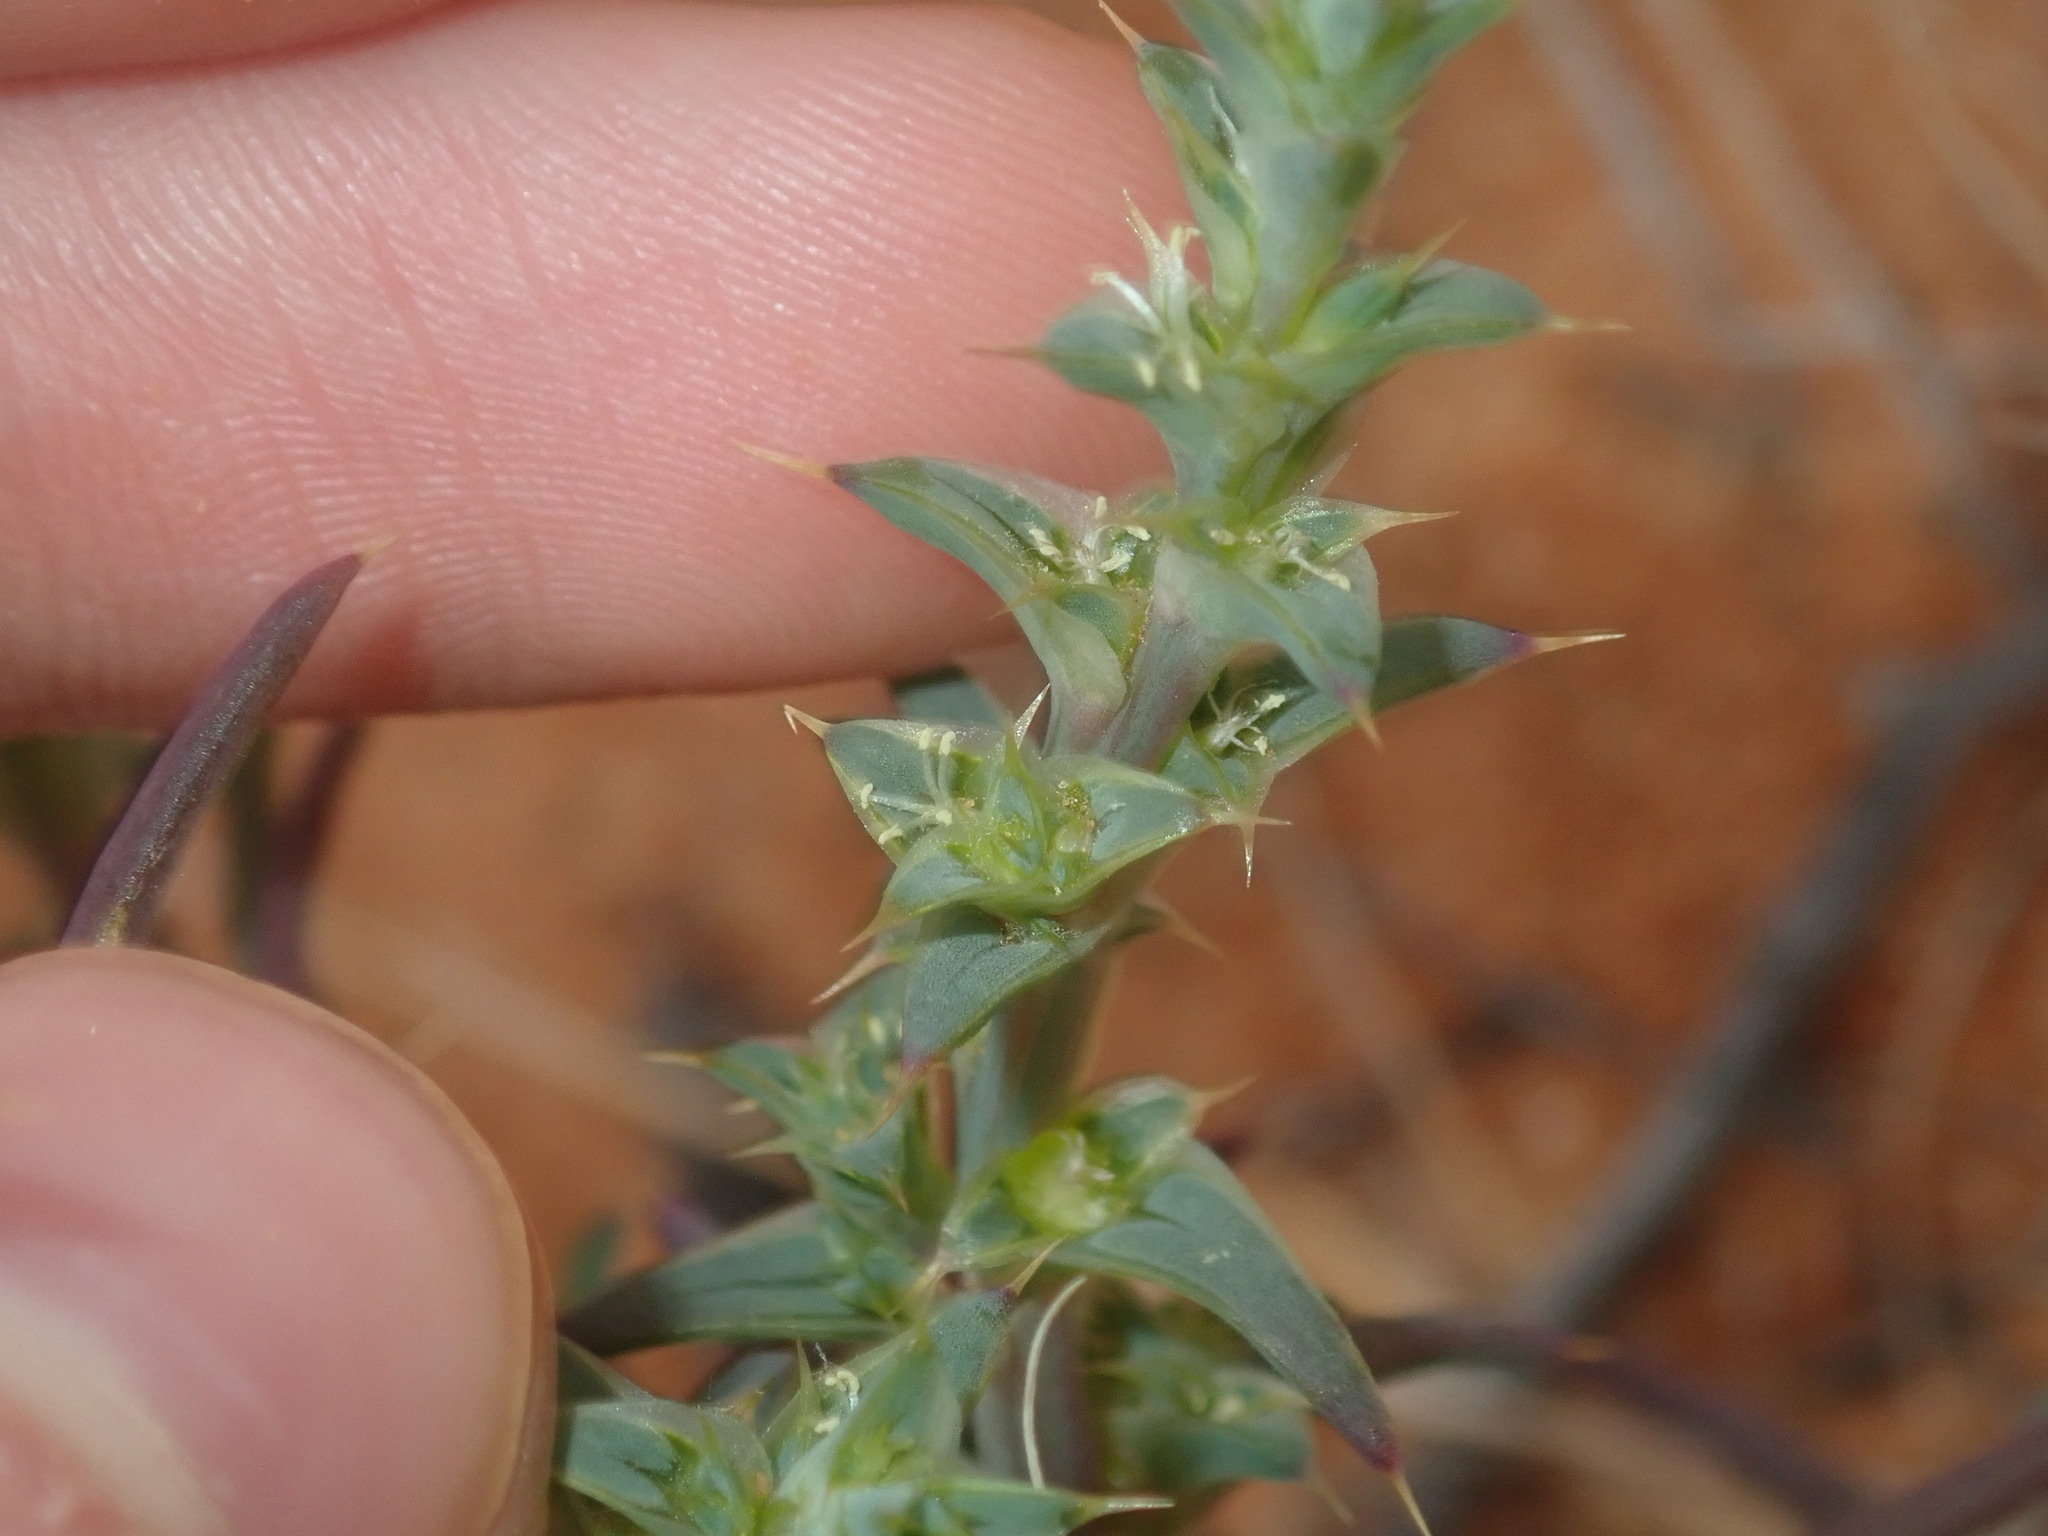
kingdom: Plantae
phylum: Tracheophyta
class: Magnoliopsida
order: Caryophyllales
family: Amaranthaceae
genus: Salsola
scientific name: Salsola australis
